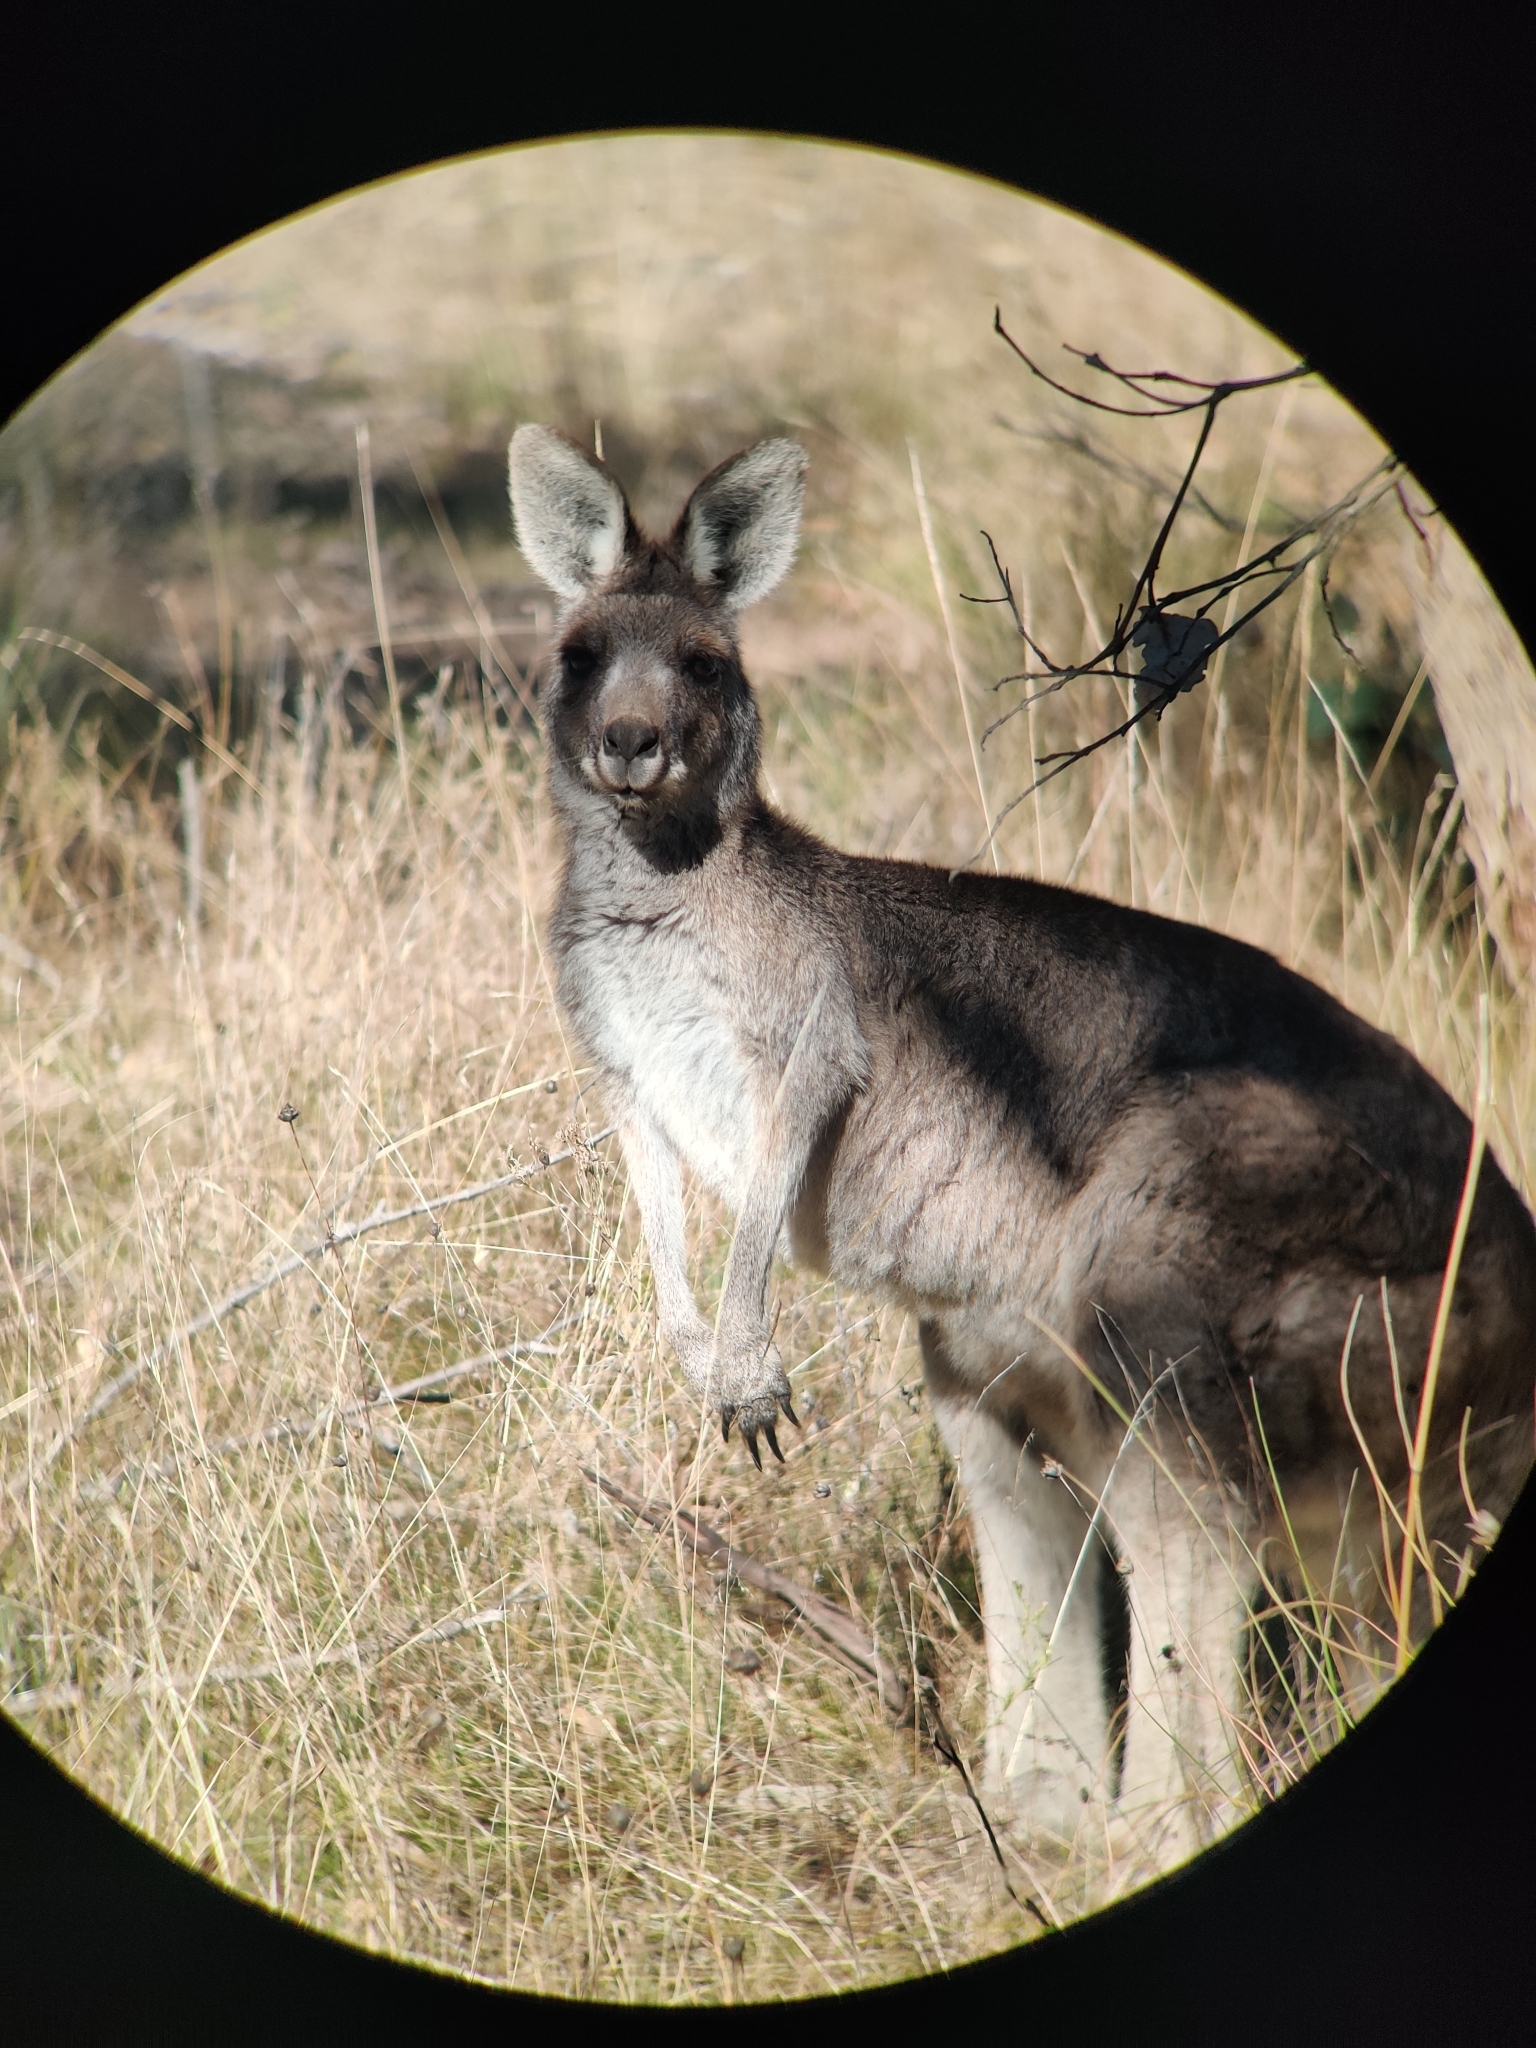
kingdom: Animalia
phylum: Chordata
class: Mammalia
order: Diprotodontia
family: Macropodidae
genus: Macropus
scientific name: Macropus giganteus
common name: Eastern grey kangaroo
